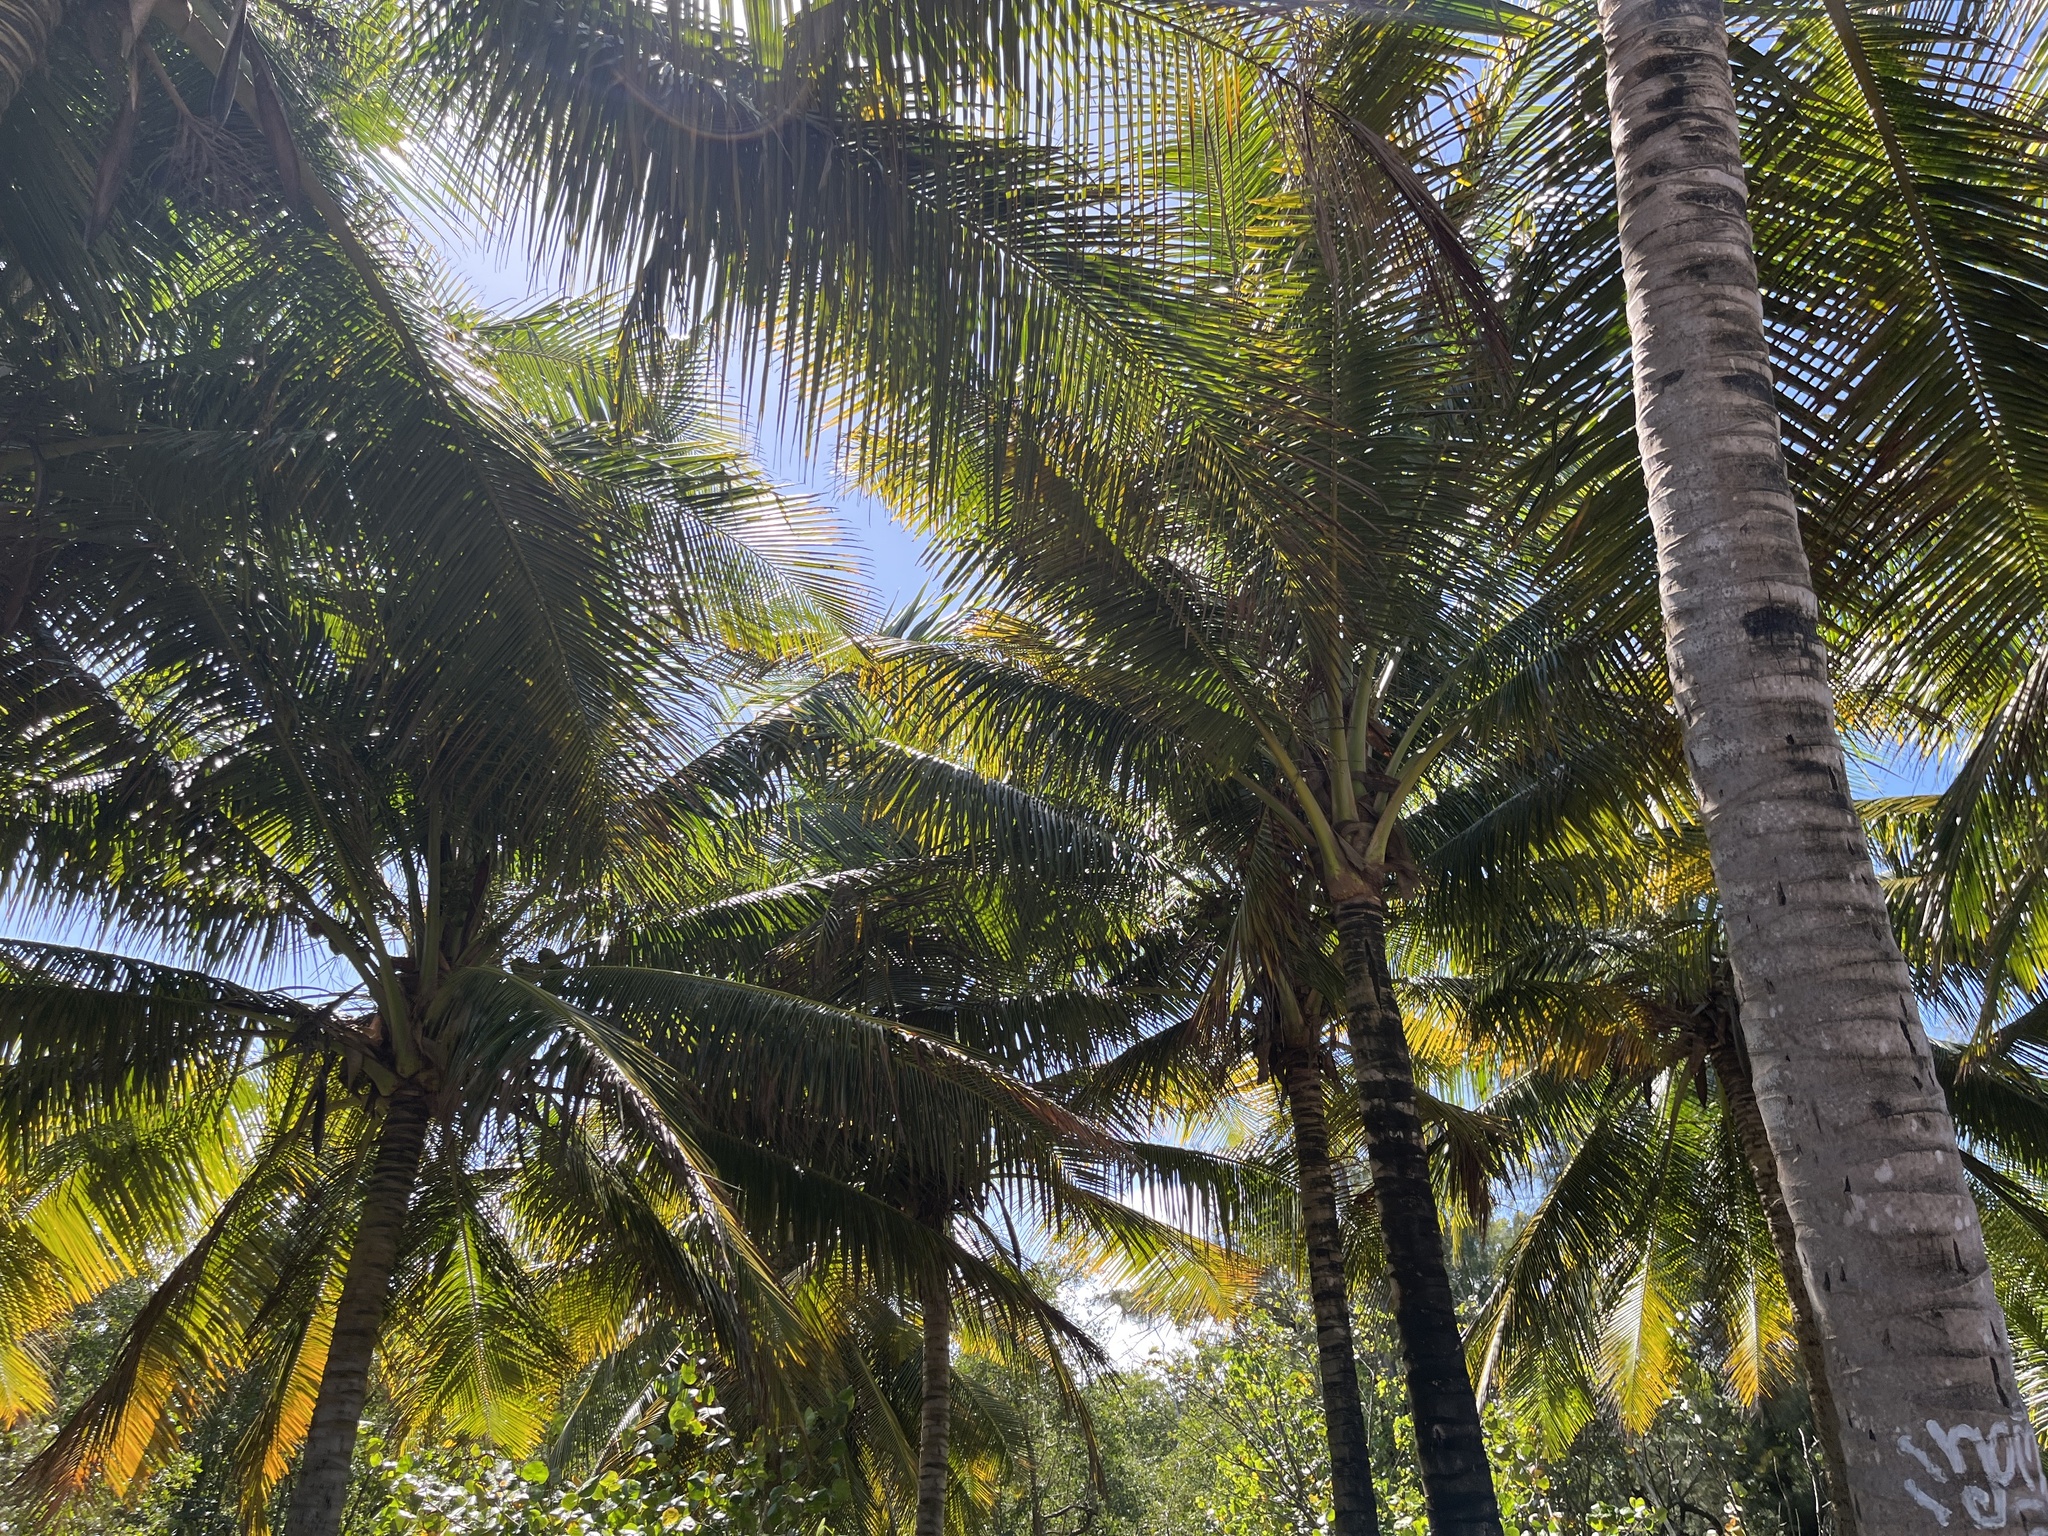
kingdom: Plantae
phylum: Tracheophyta
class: Liliopsida
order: Arecales
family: Arecaceae
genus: Cocos
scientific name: Cocos nucifera
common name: Coconut palm
